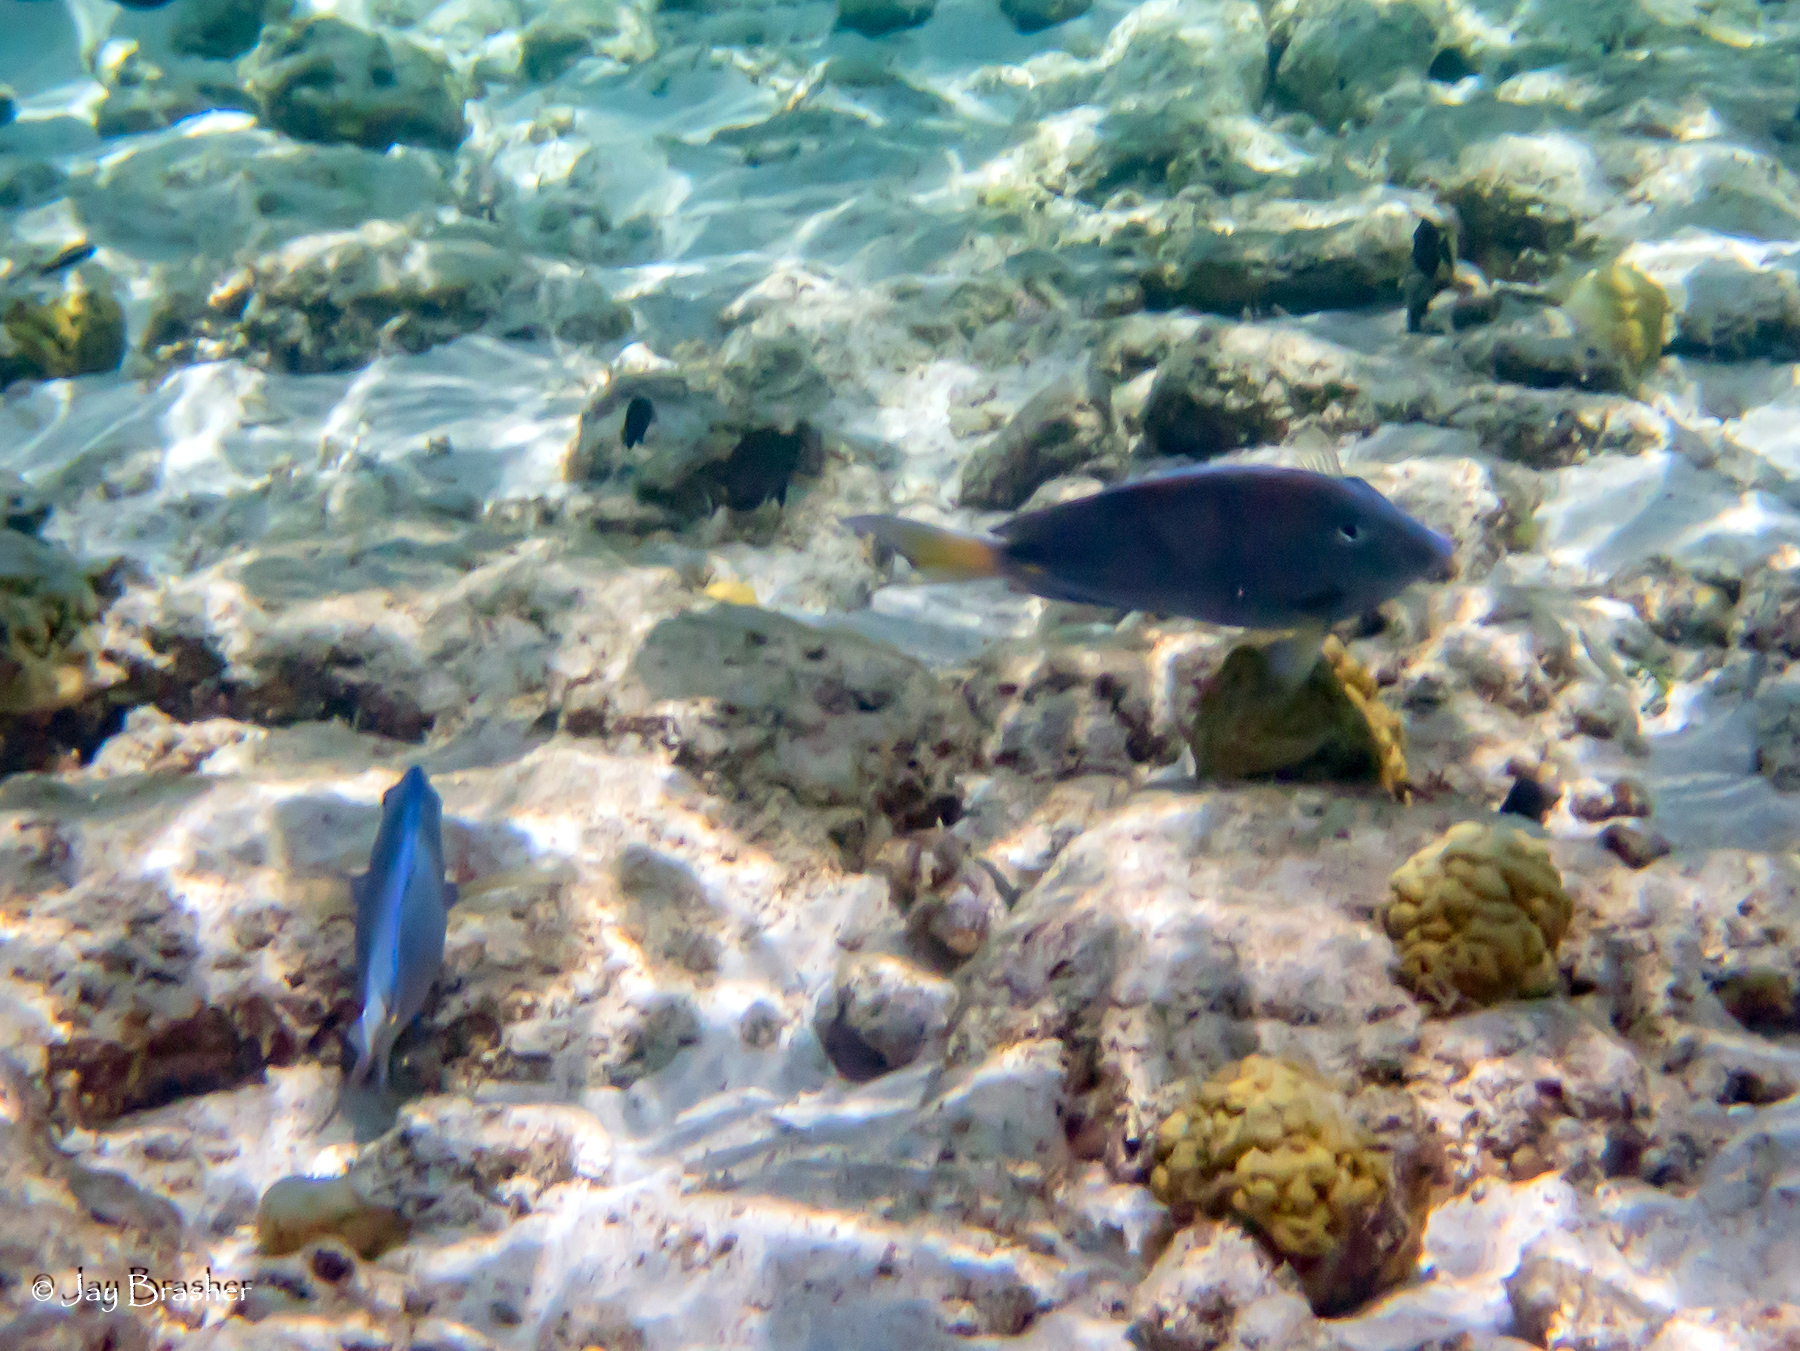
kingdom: Animalia
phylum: Chordata
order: Perciformes
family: Acanthuridae
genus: Acanthurus
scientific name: Acanthurus coeruleus
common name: Blue tang
